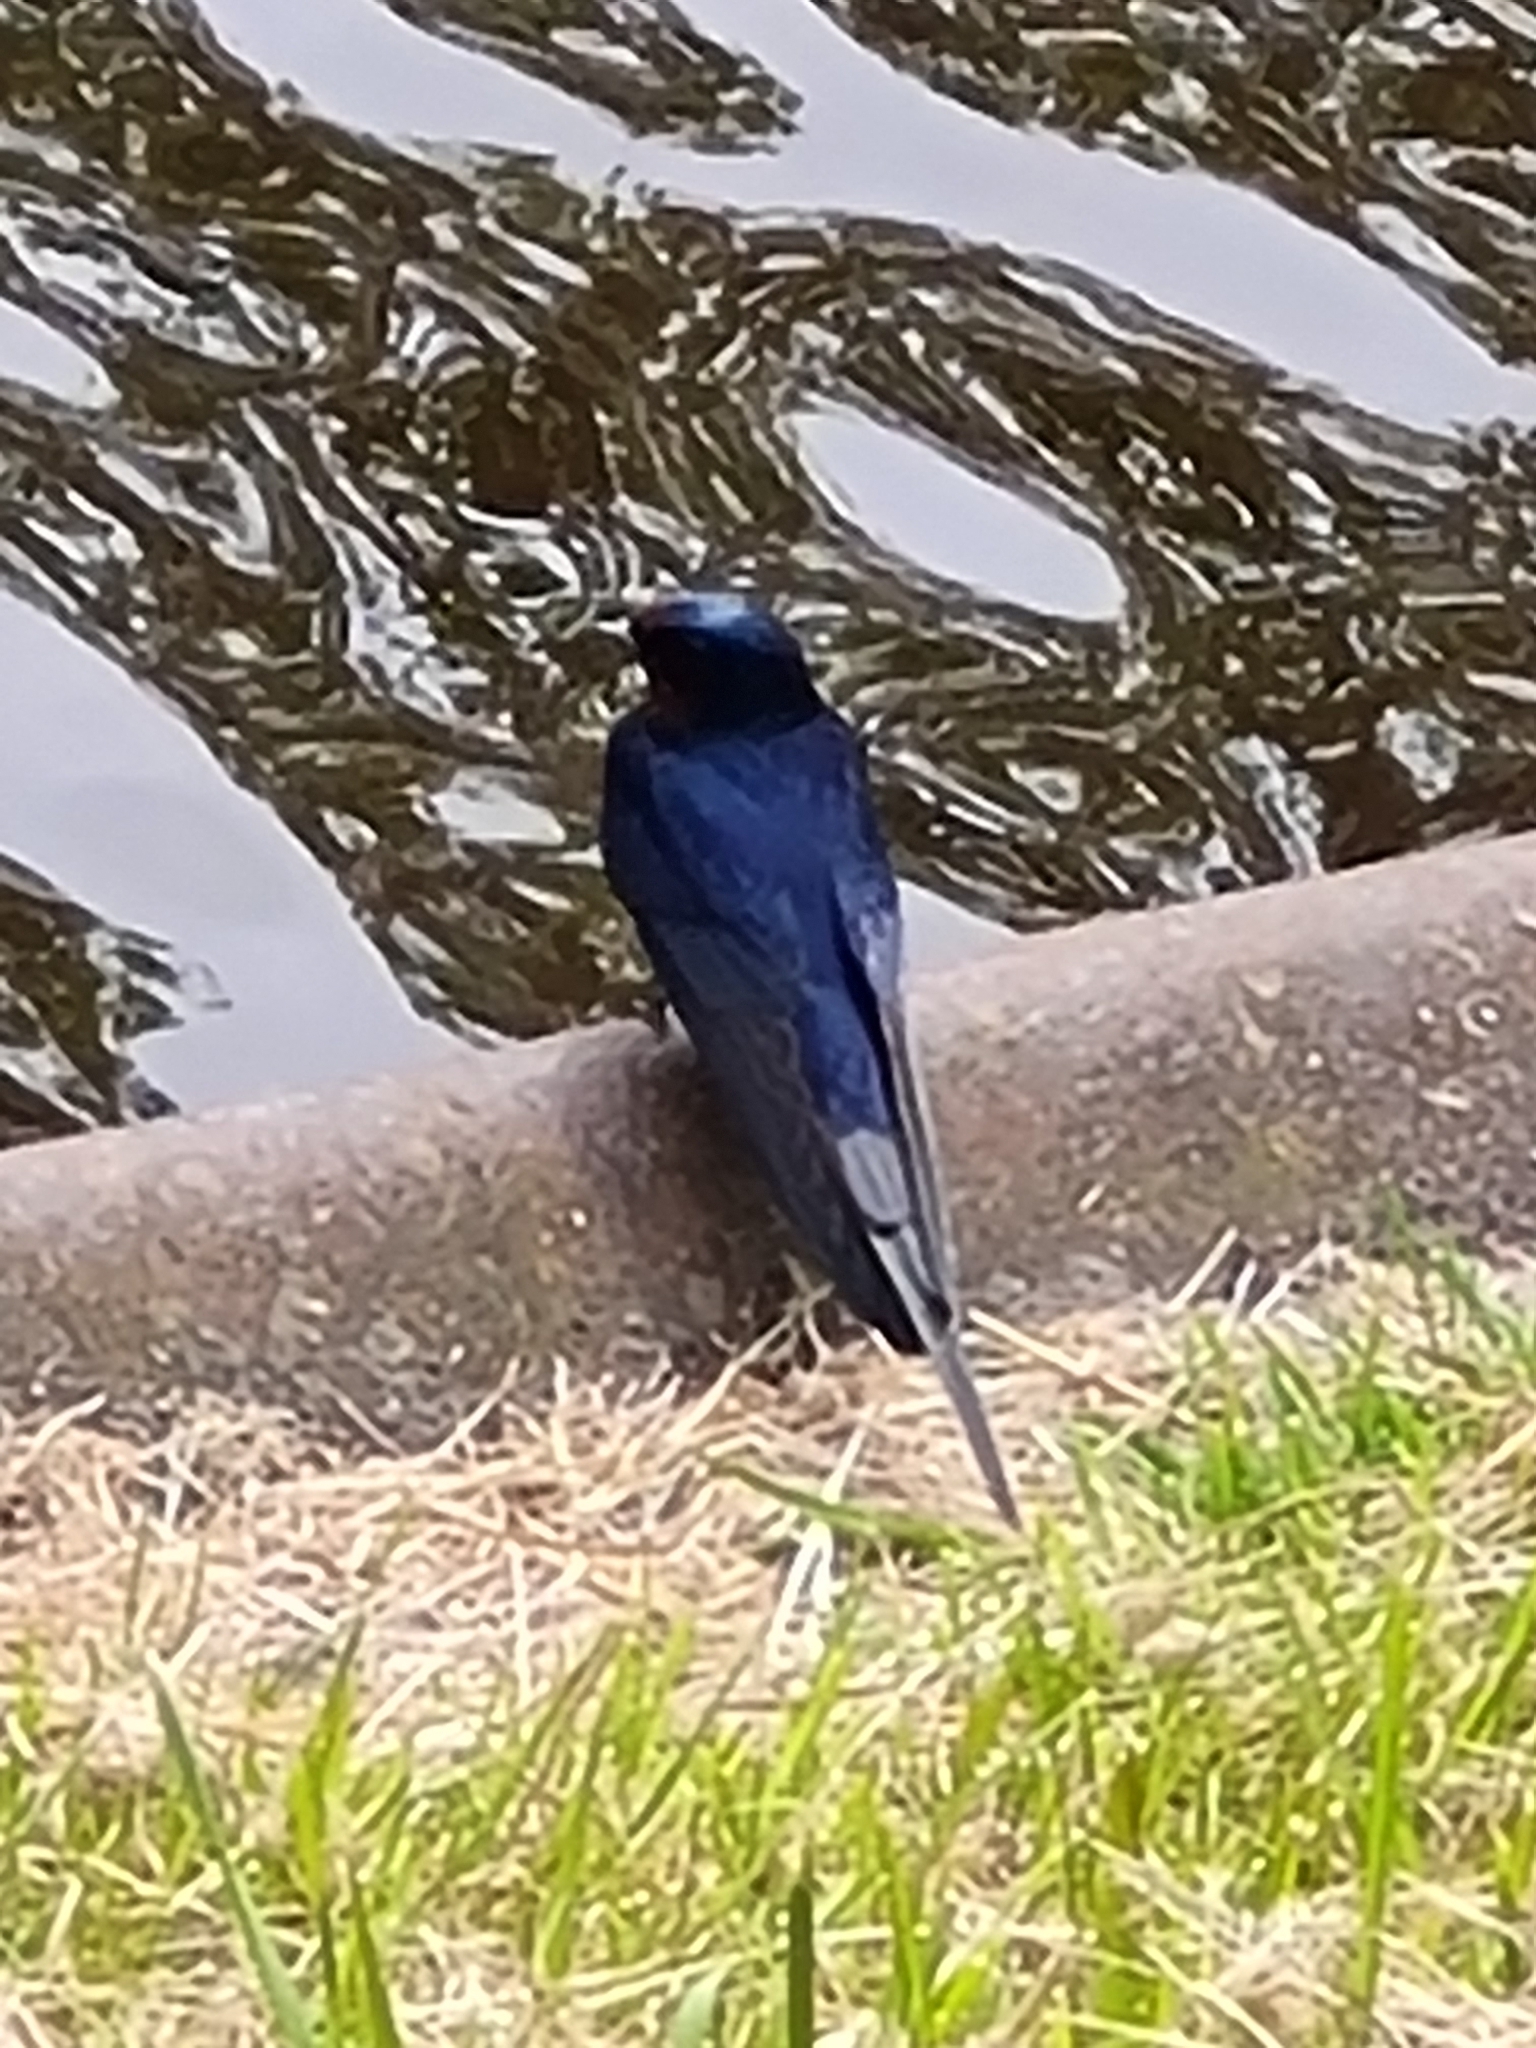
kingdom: Animalia
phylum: Chordata
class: Aves
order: Passeriformes
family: Hirundinidae
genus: Hirundo
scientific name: Hirundo rustica
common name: Barn swallow
